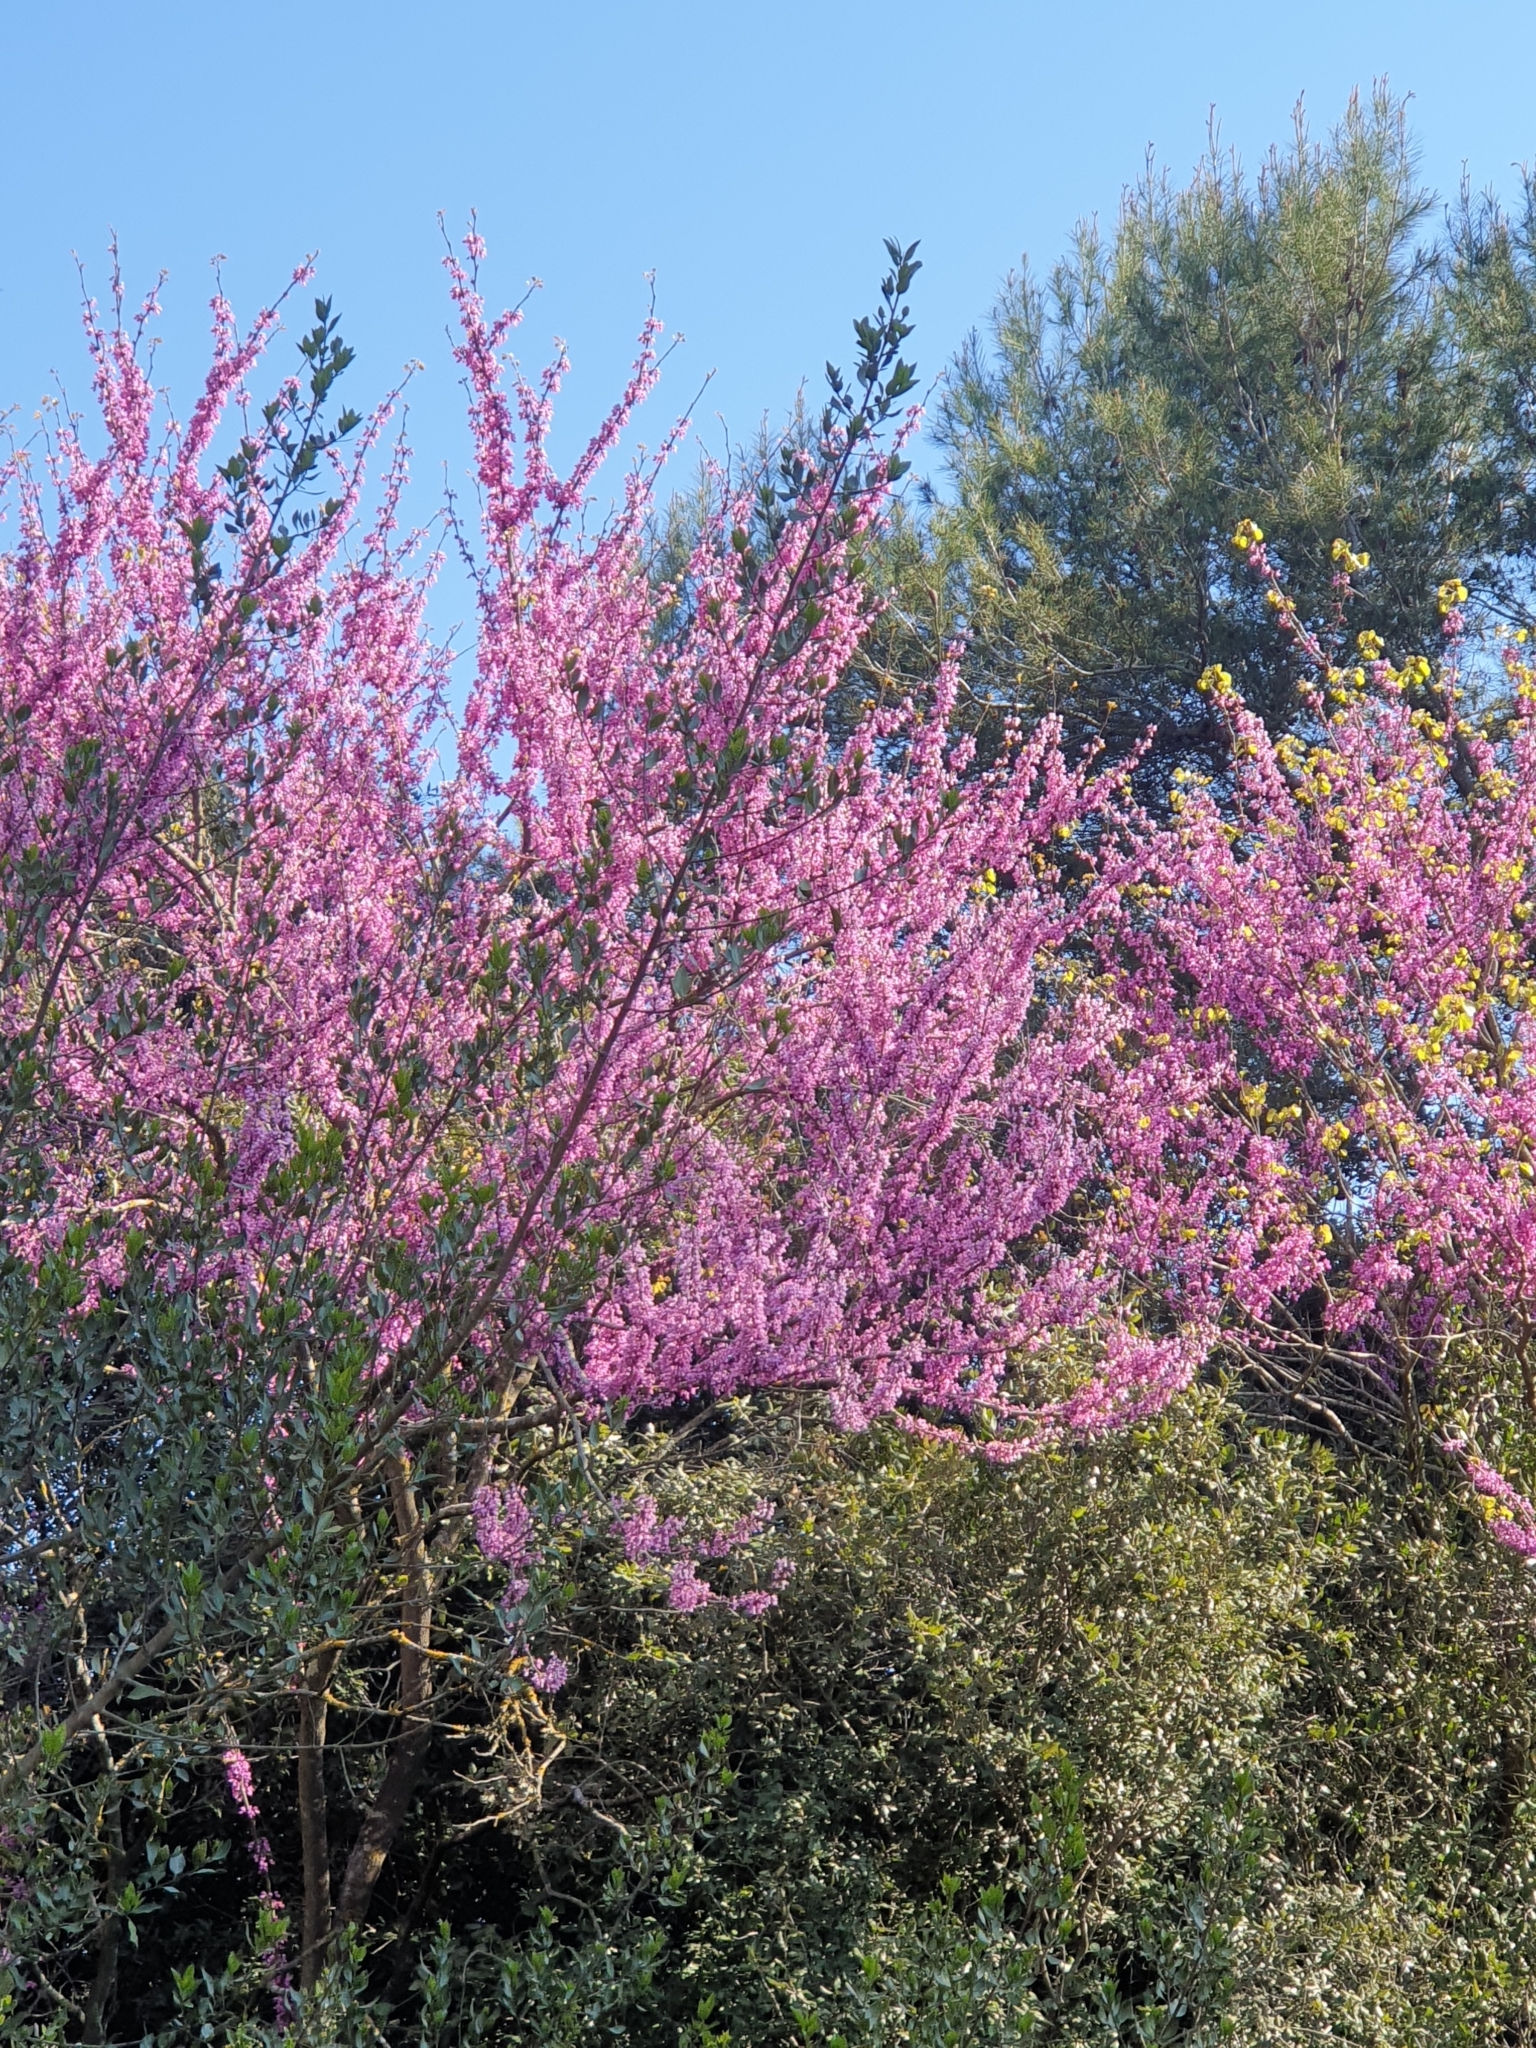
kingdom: Plantae
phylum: Tracheophyta
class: Magnoliopsida
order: Fabales
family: Fabaceae
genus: Cercis
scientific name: Cercis siliquastrum
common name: Judas tree
